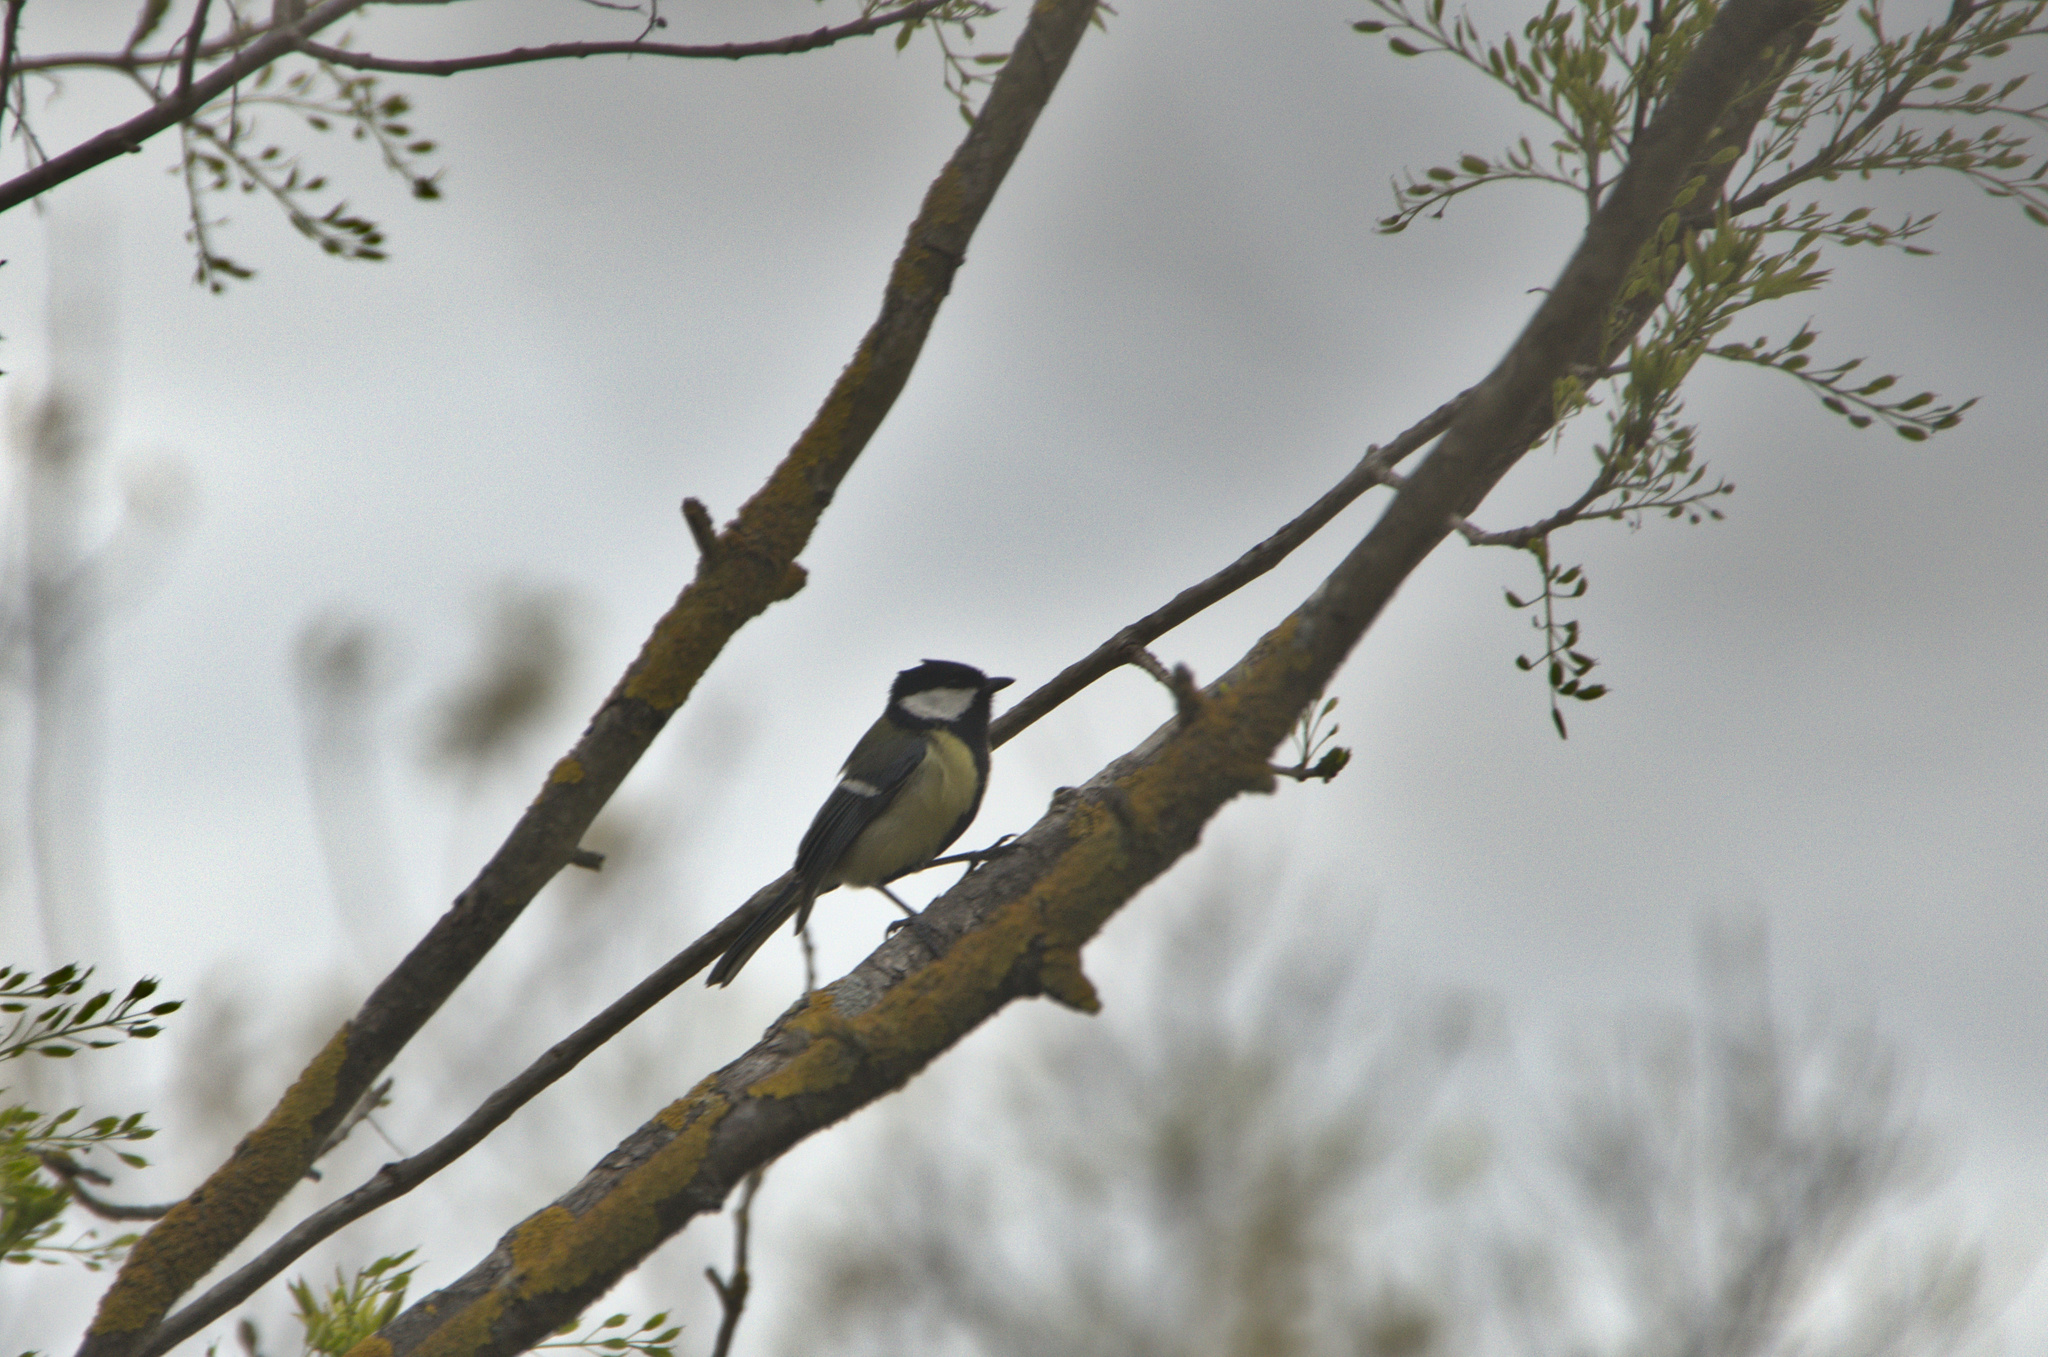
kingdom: Animalia
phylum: Chordata
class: Aves
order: Passeriformes
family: Paridae
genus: Parus
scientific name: Parus major
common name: Great tit
